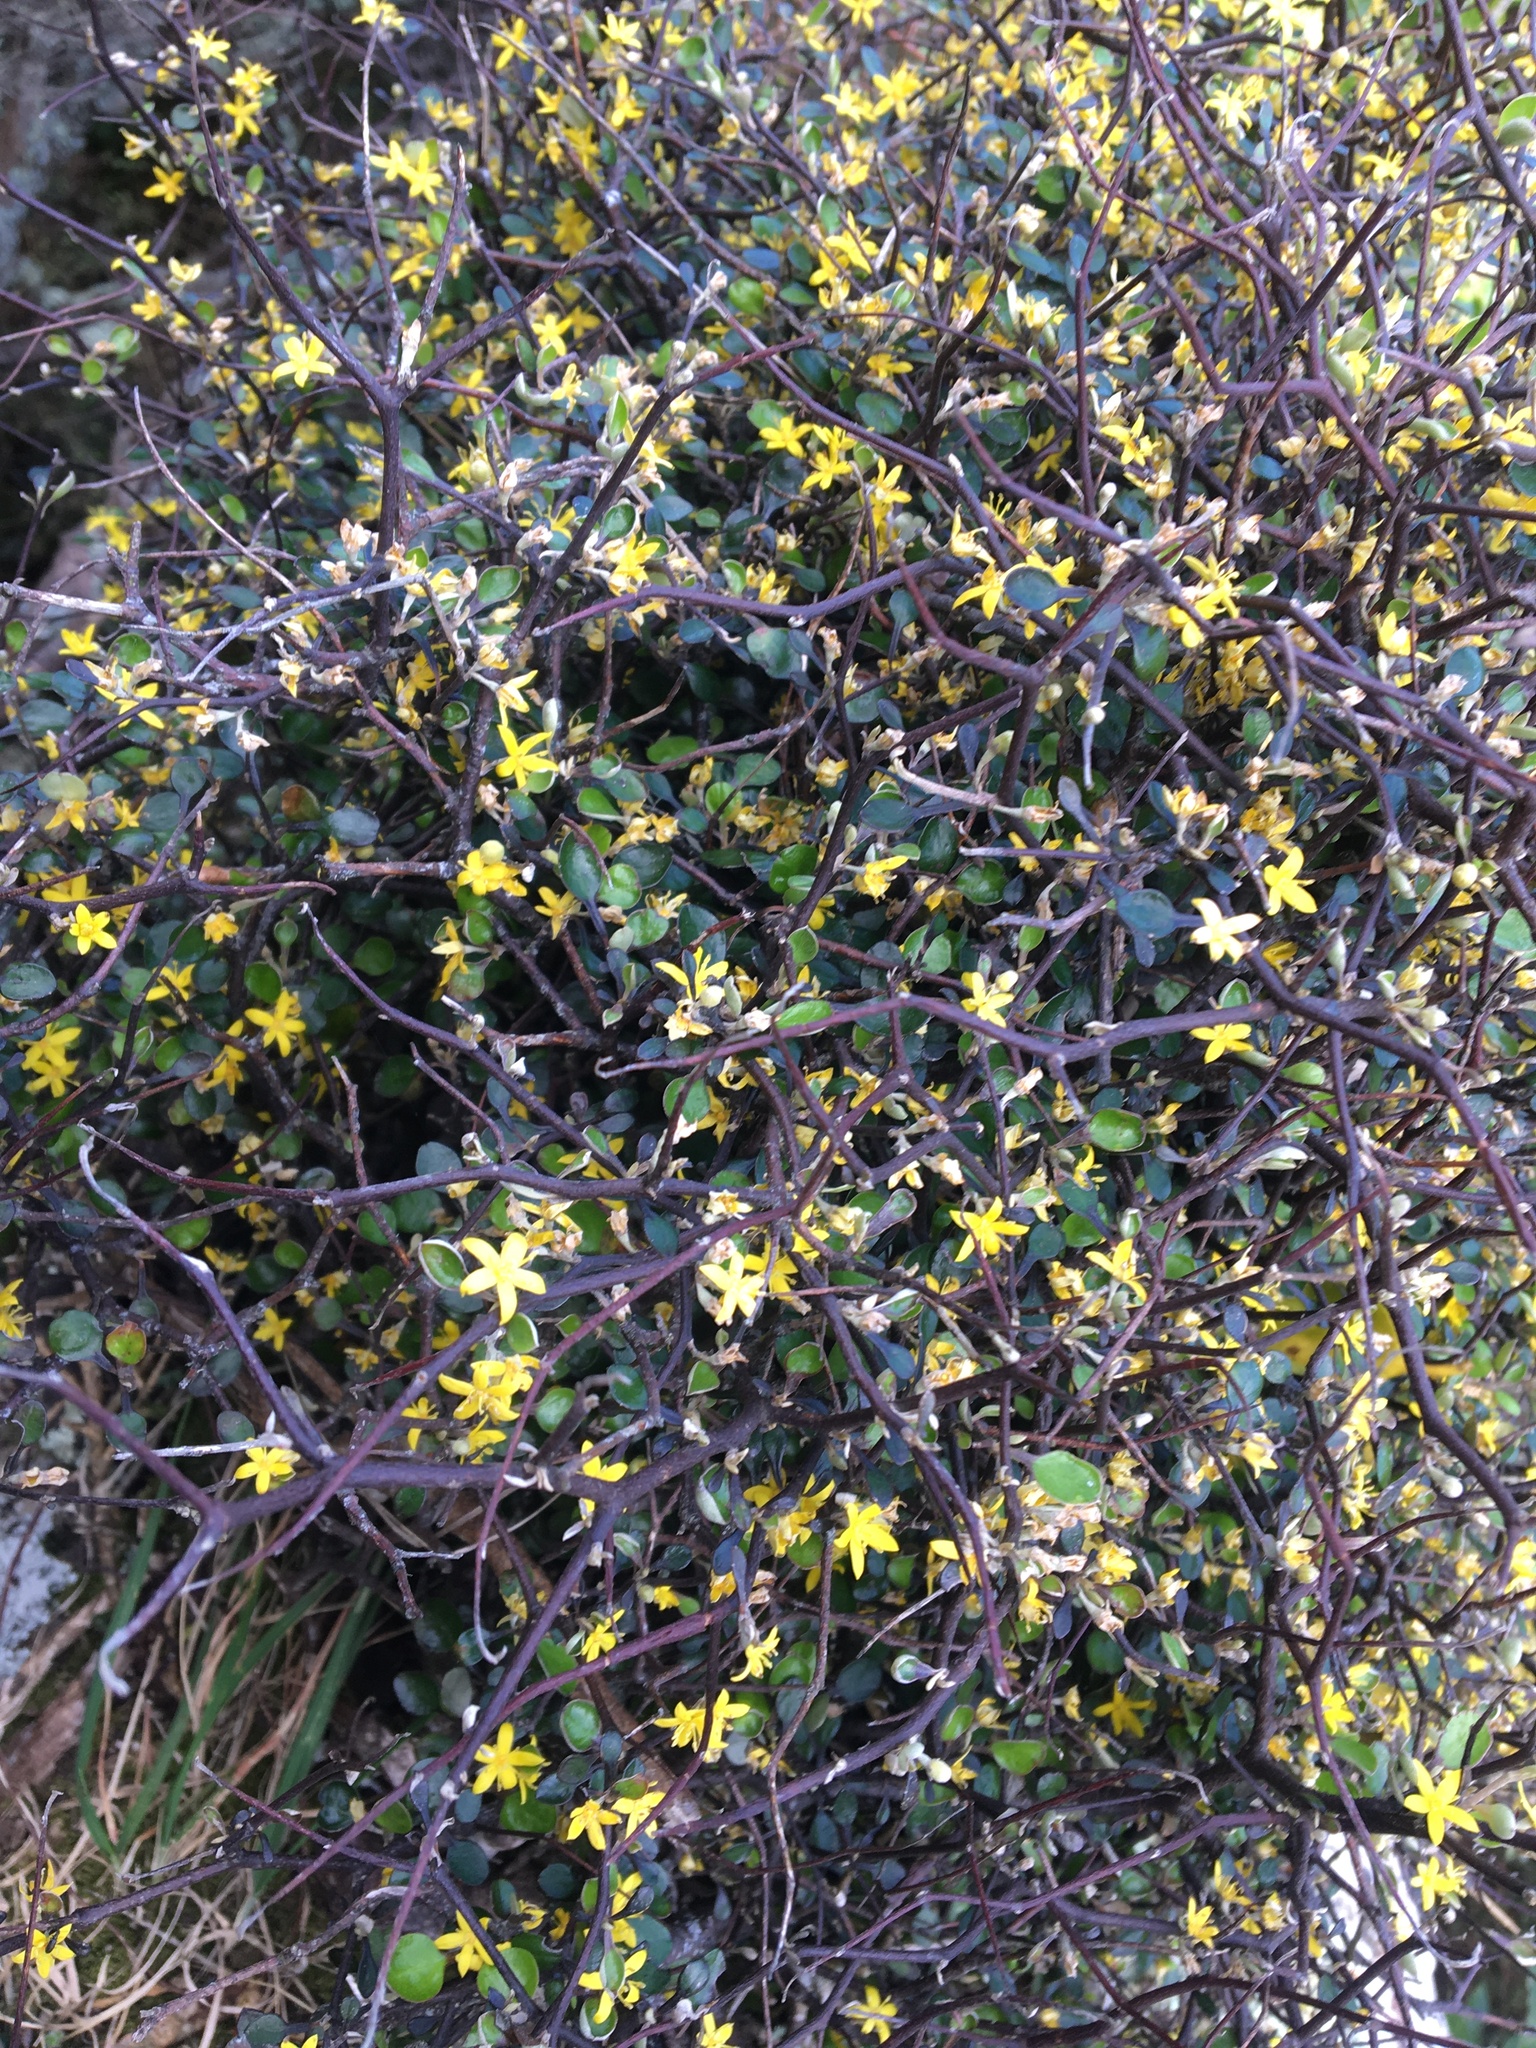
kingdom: Plantae
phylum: Tracheophyta
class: Magnoliopsida
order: Asterales
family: Argophyllaceae
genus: Corokia
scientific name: Corokia cotoneaster
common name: Wire nettingbush
